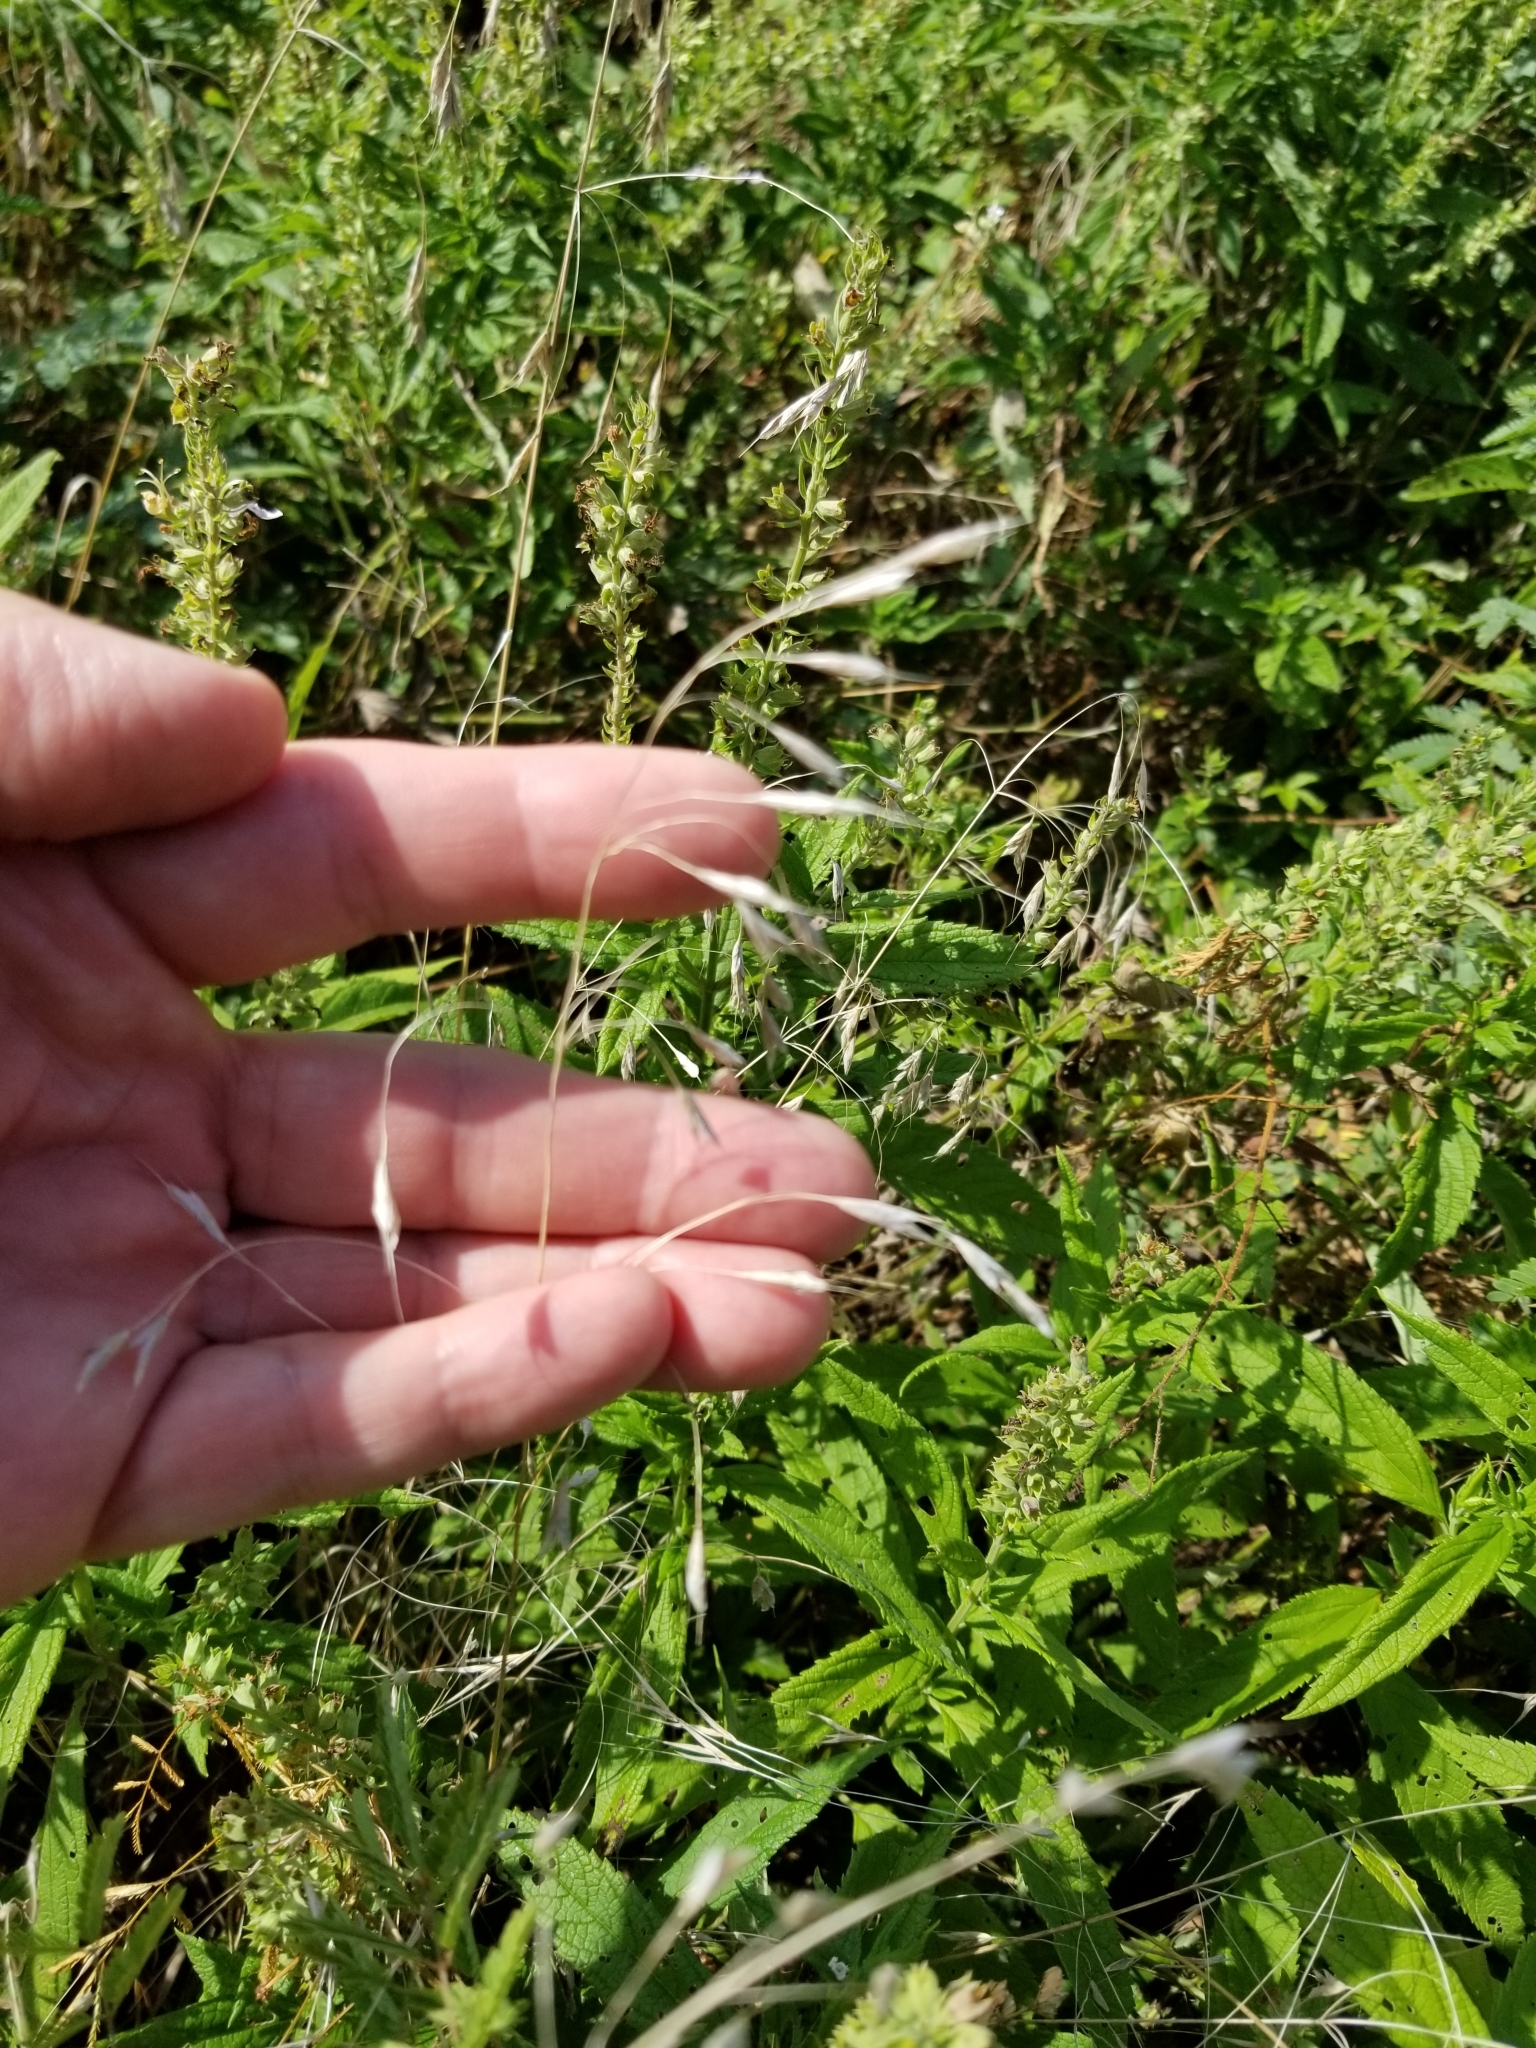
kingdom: Plantae
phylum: Tracheophyta
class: Liliopsida
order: Poales
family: Poaceae
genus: Bromus
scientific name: Bromus japonicus
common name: Japanese brome
